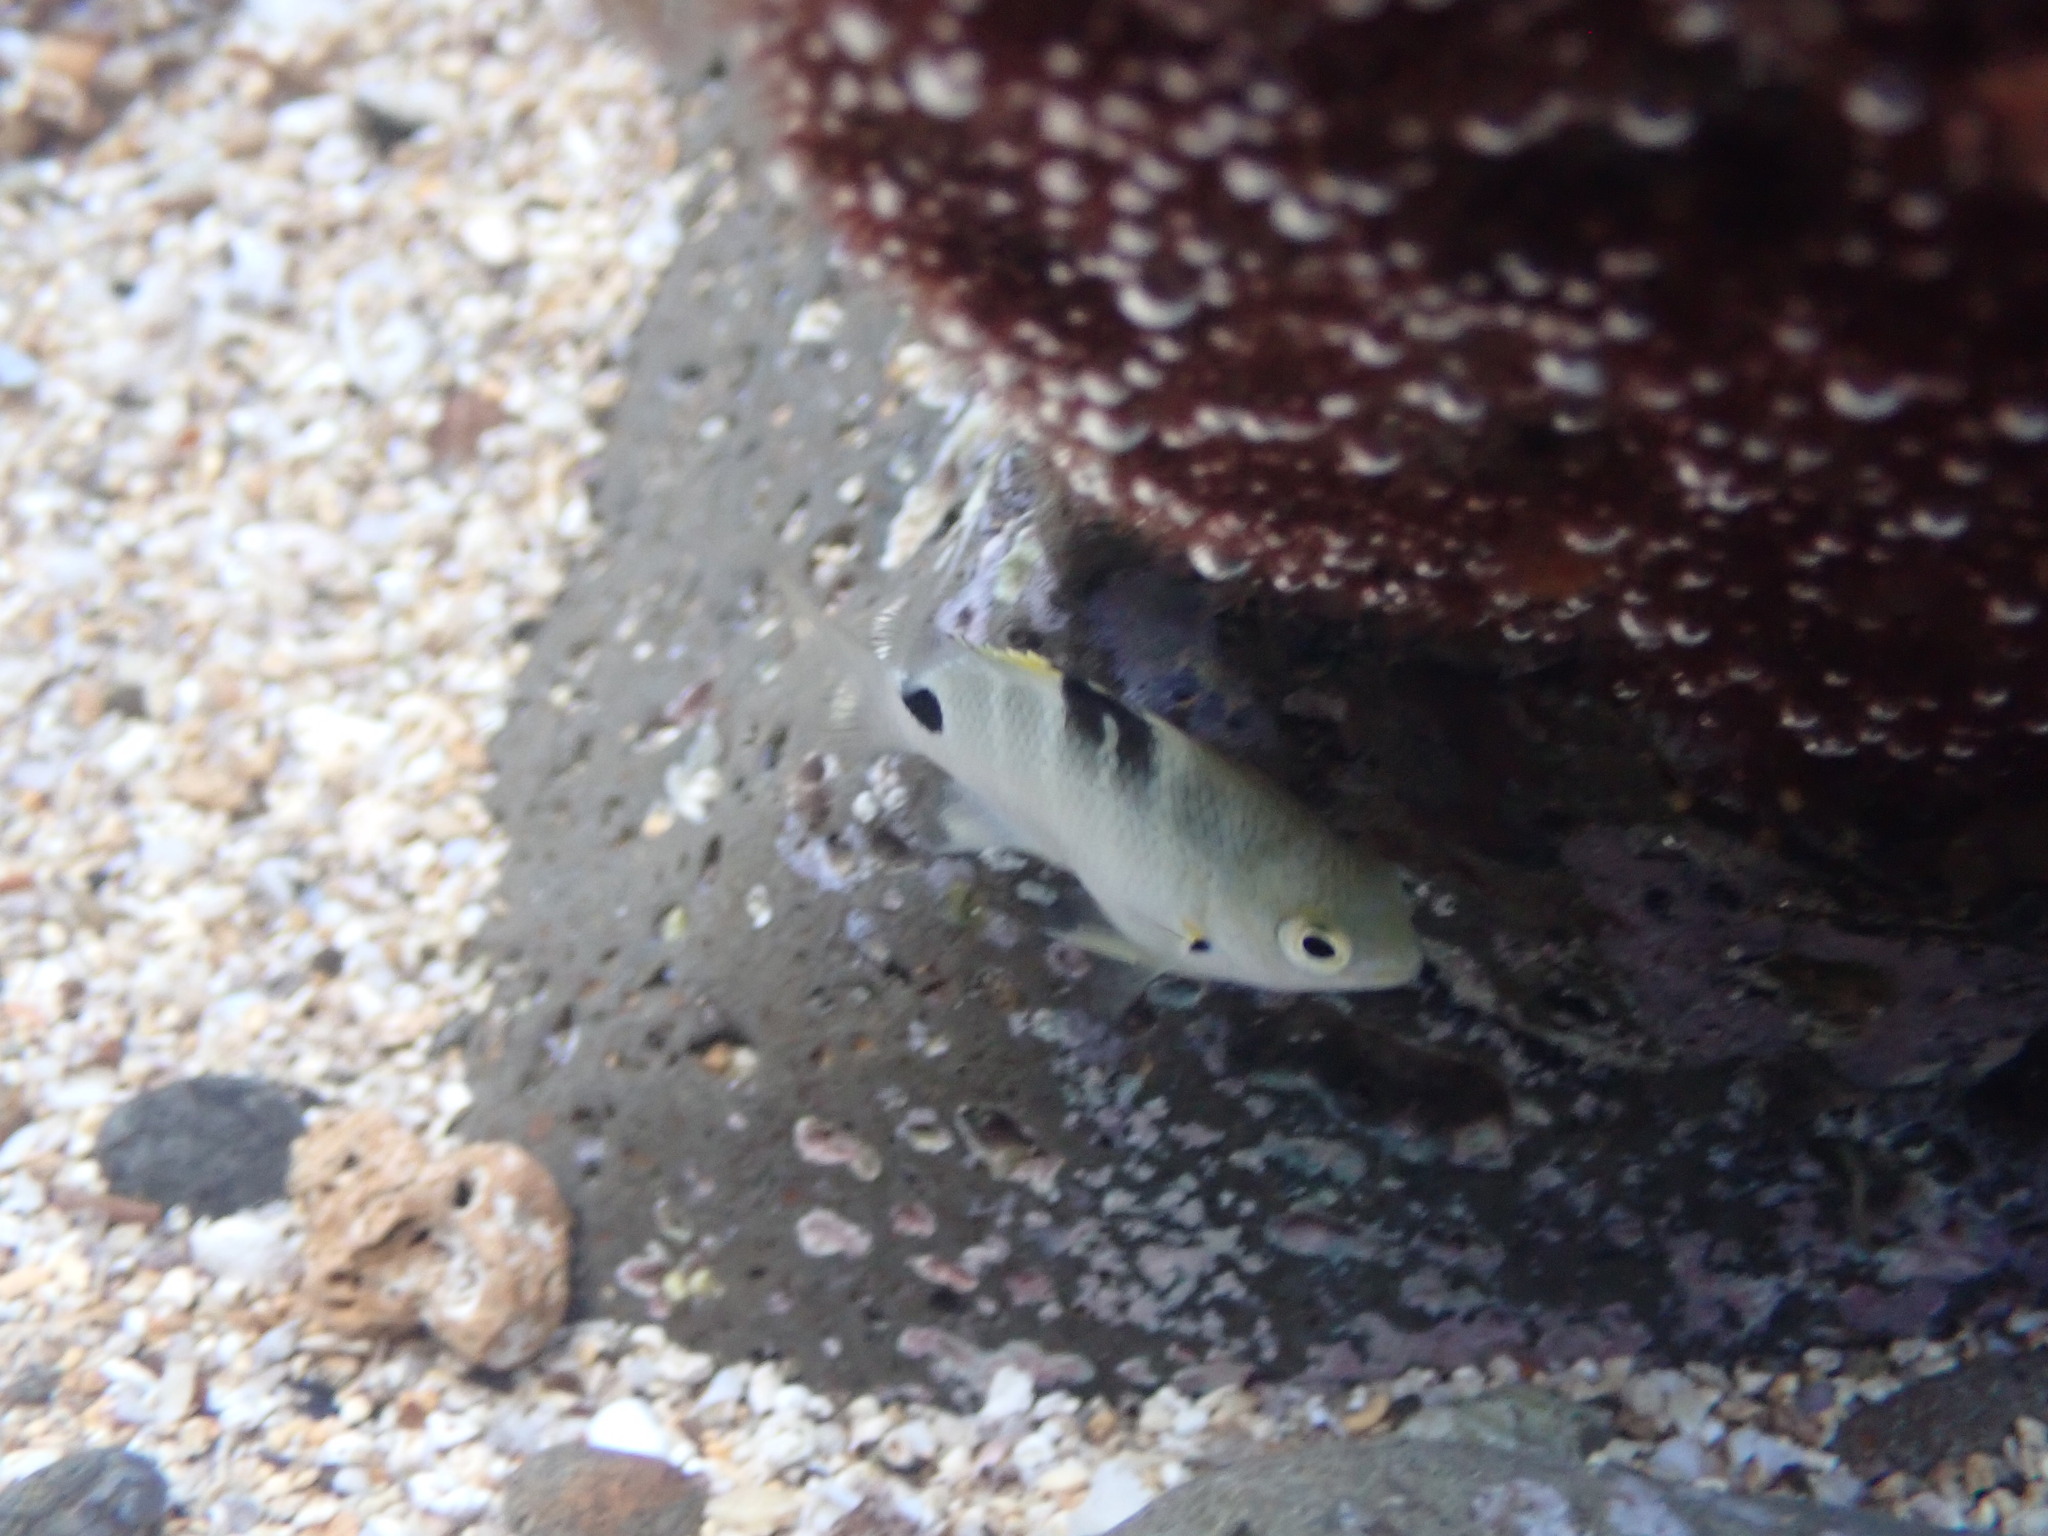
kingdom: Animalia
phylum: Chordata
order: Perciformes
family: Pomacentridae
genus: Abudefduf
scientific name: Abudefduf sordidus
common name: Blackspot sergeant
